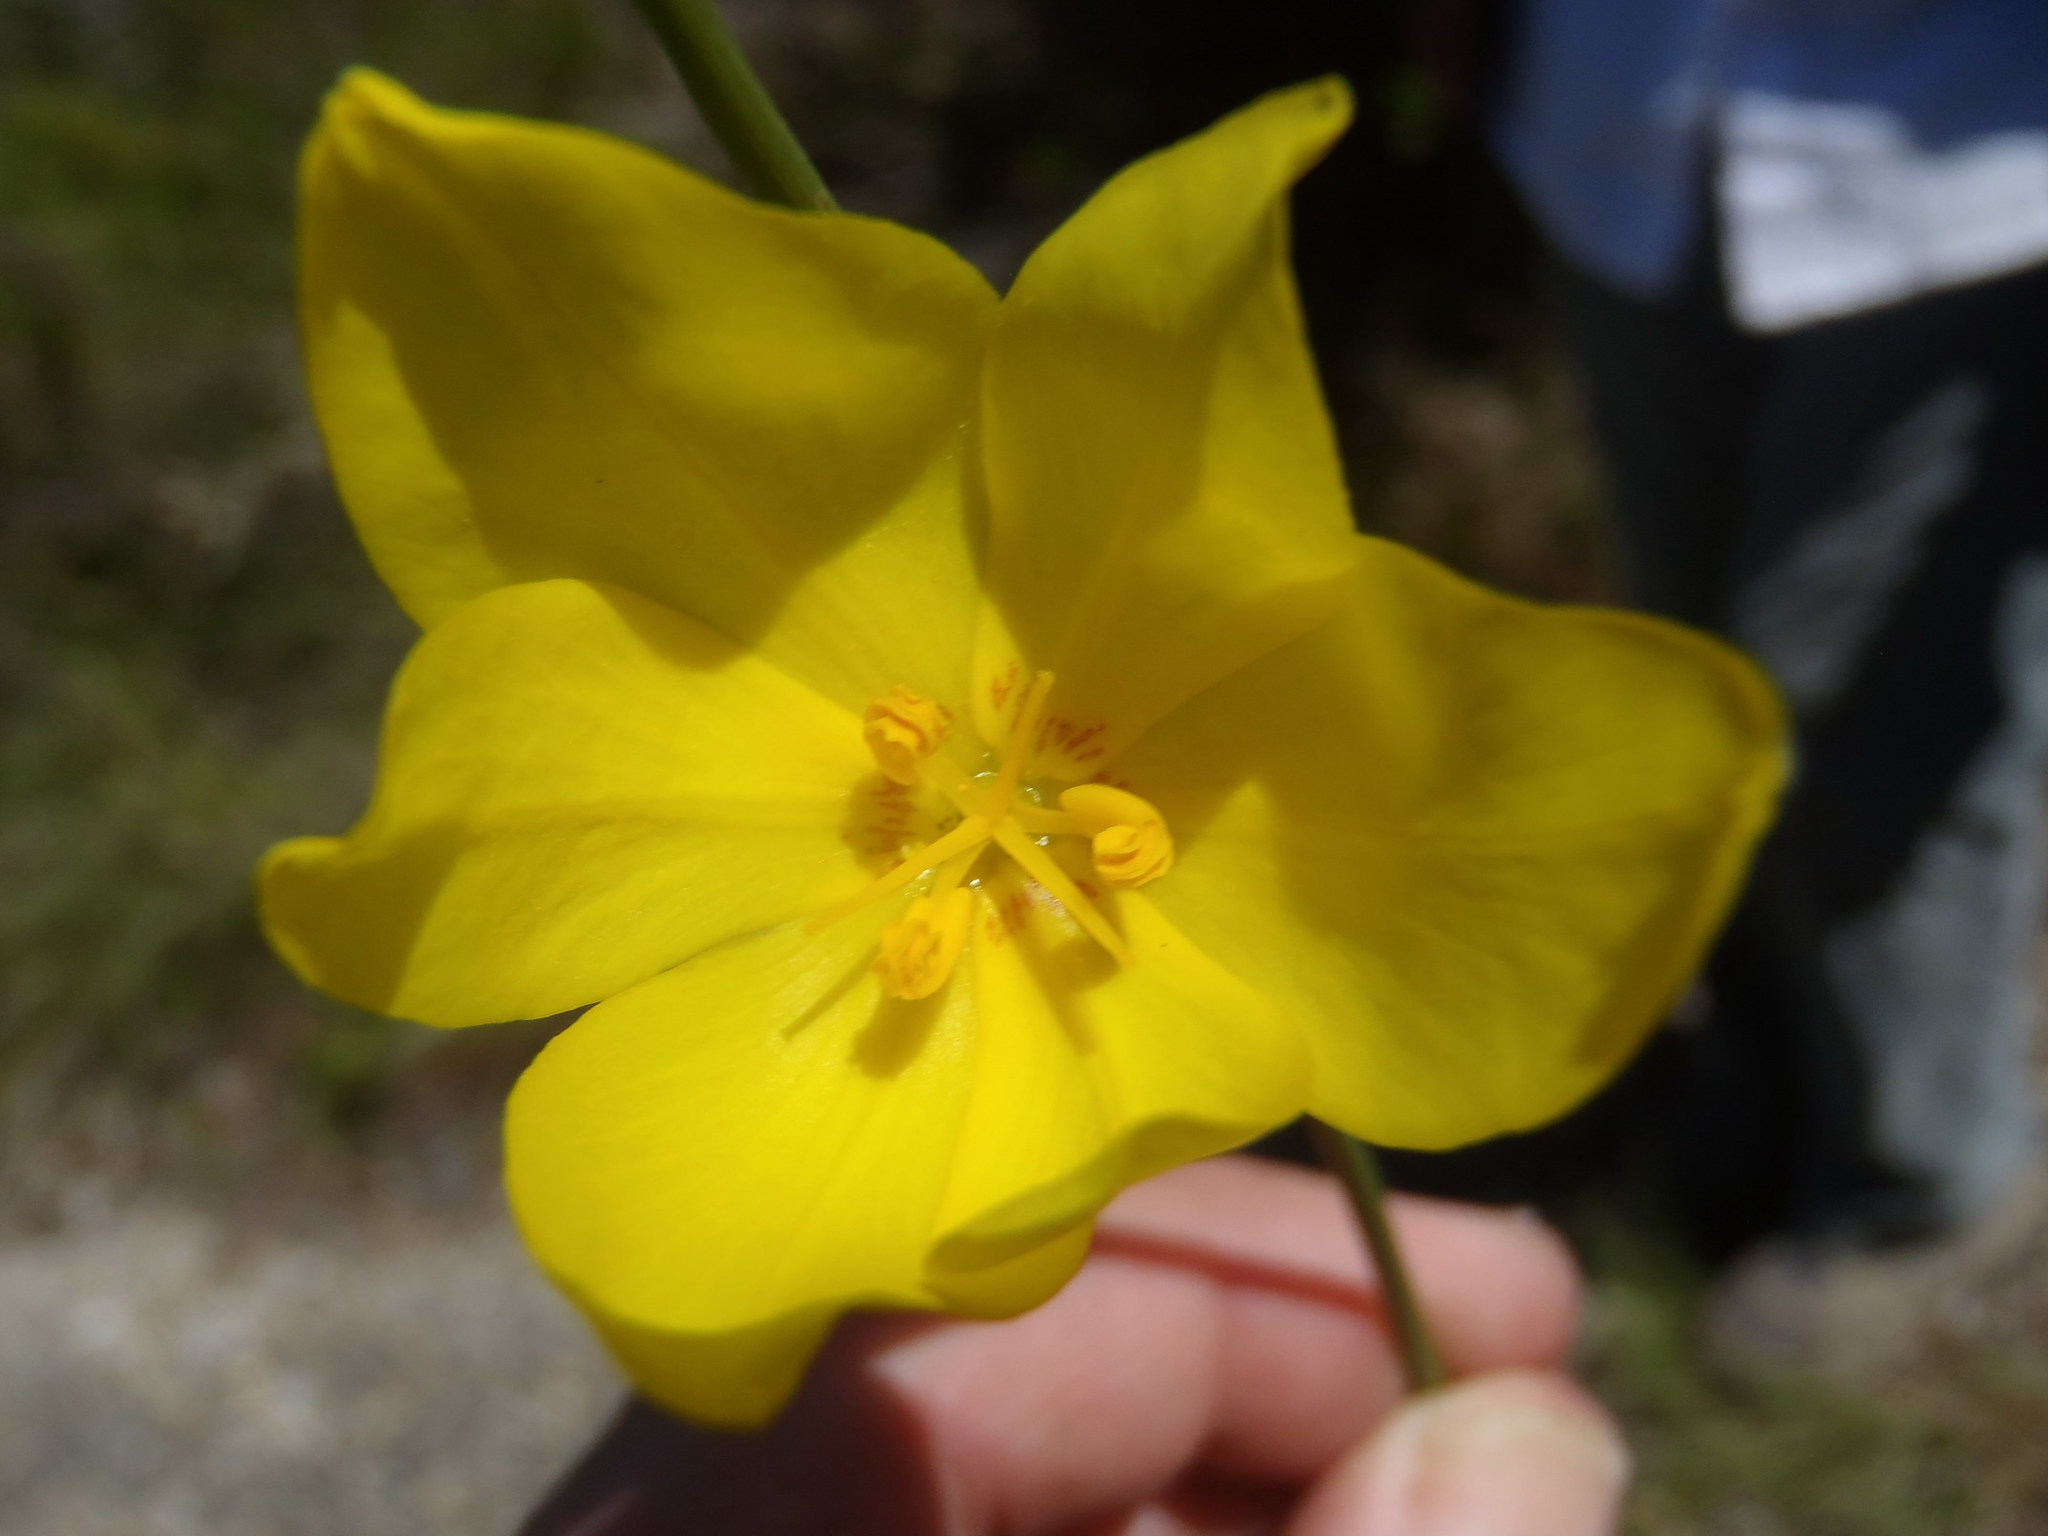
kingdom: Plantae
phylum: Tracheophyta
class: Liliopsida
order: Asparagales
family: Iridaceae
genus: Bobartia
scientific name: Bobartia aphylla
